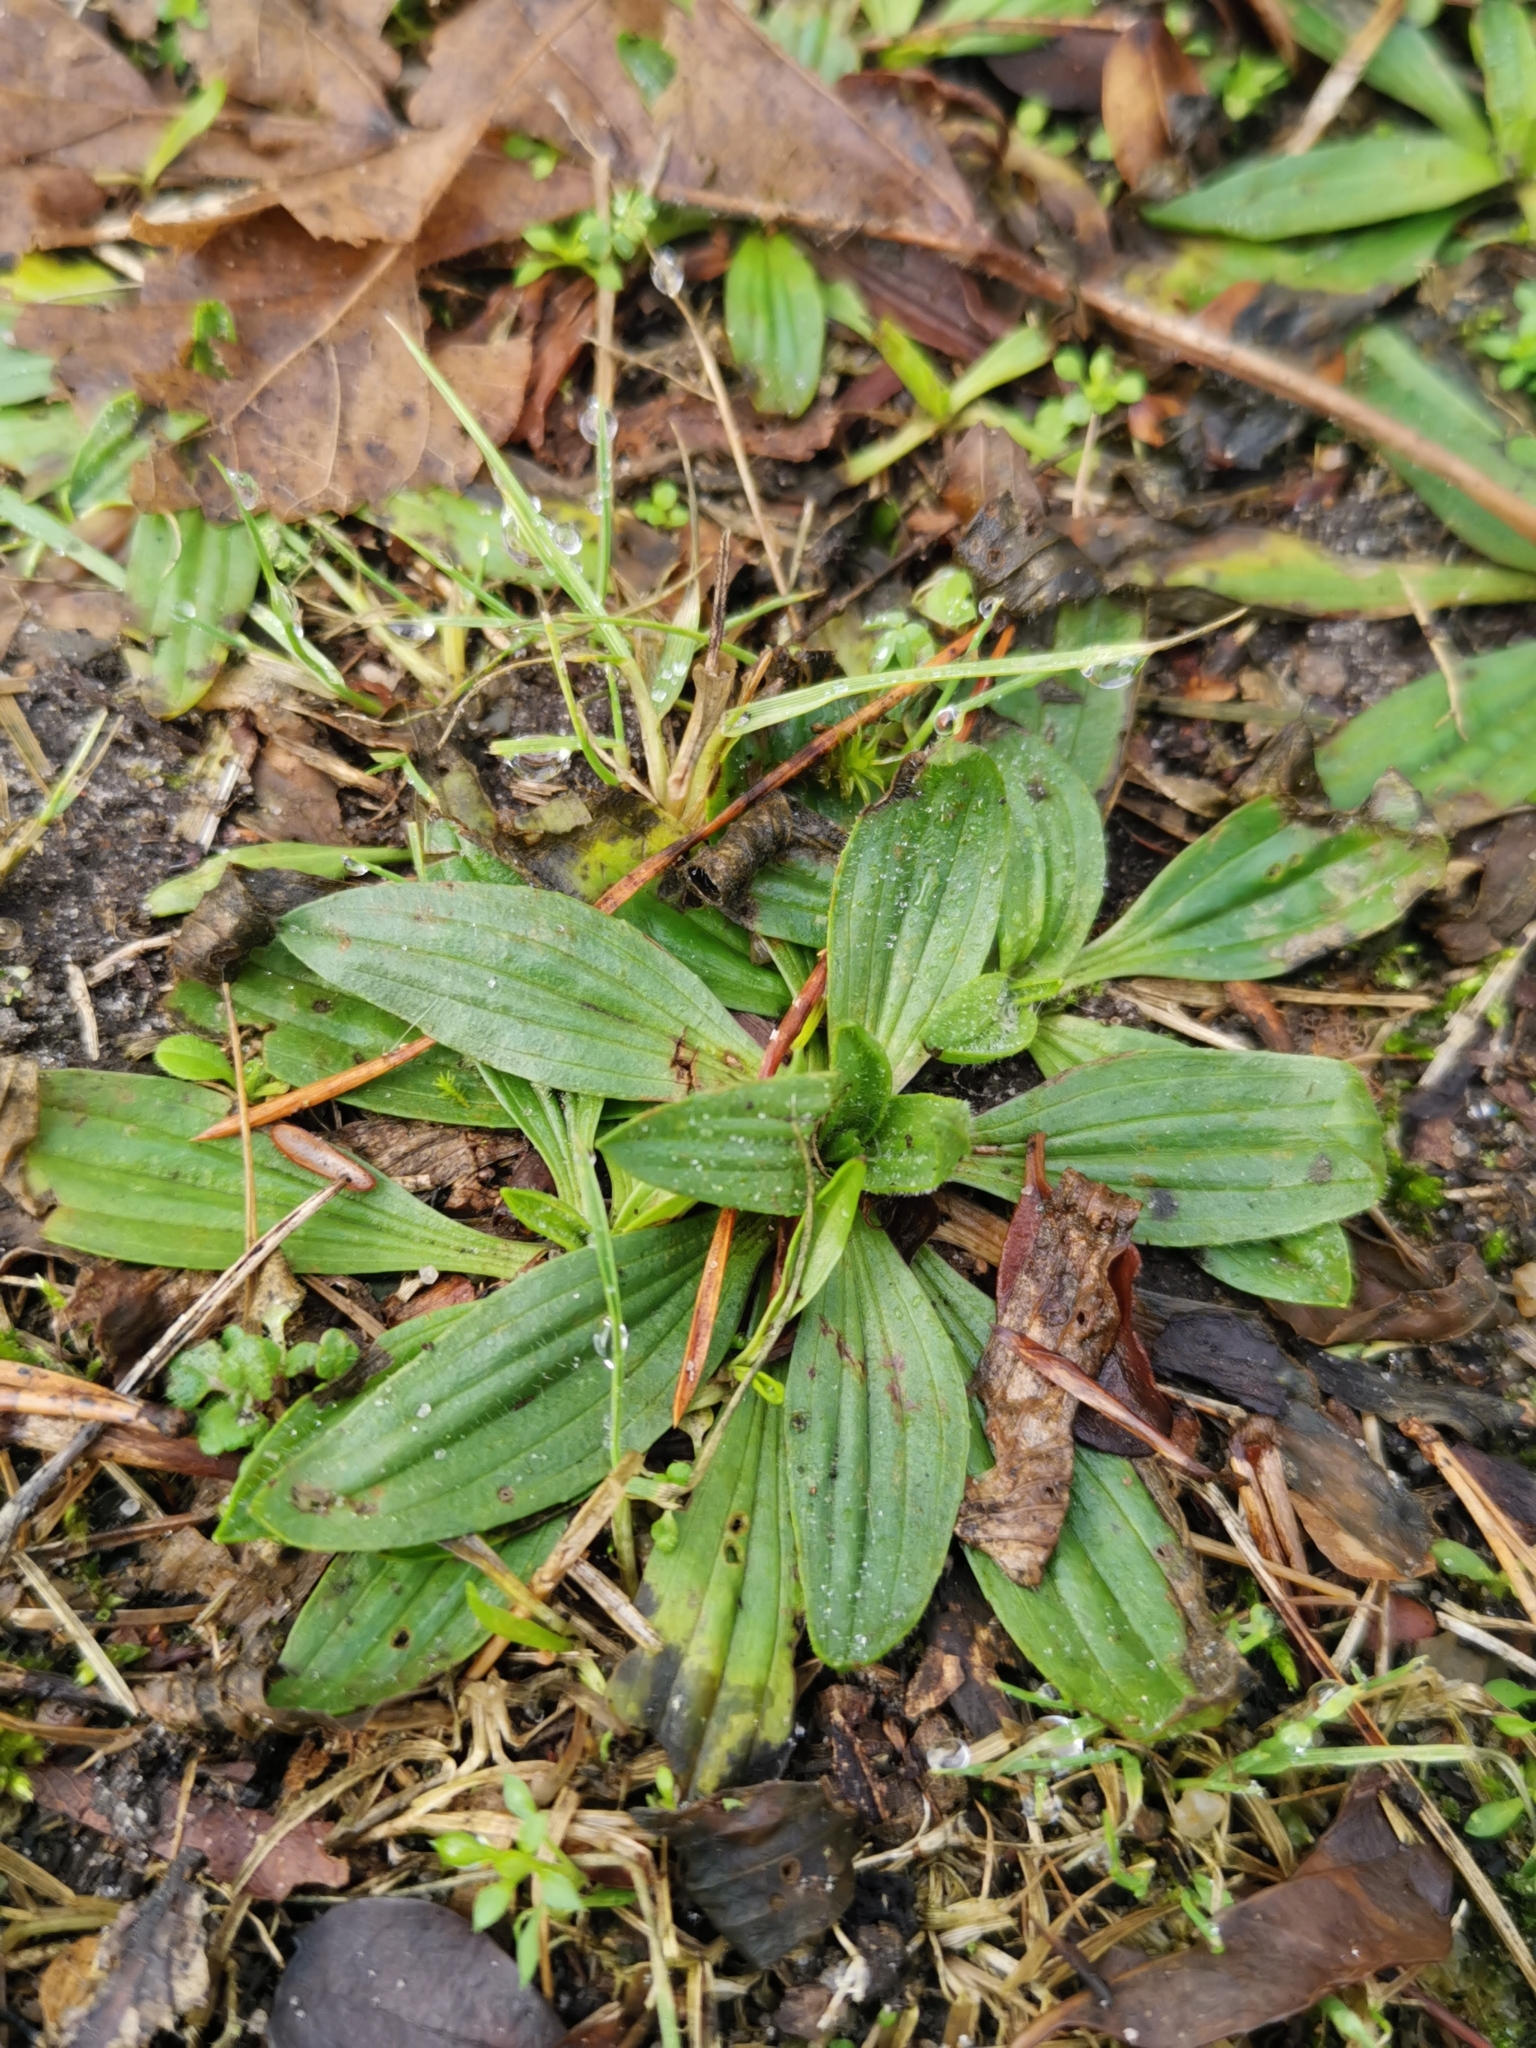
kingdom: Plantae
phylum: Tracheophyta
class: Magnoliopsida
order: Lamiales
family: Plantaginaceae
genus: Plantago
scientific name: Plantago lanceolata
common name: Ribwort plantain
